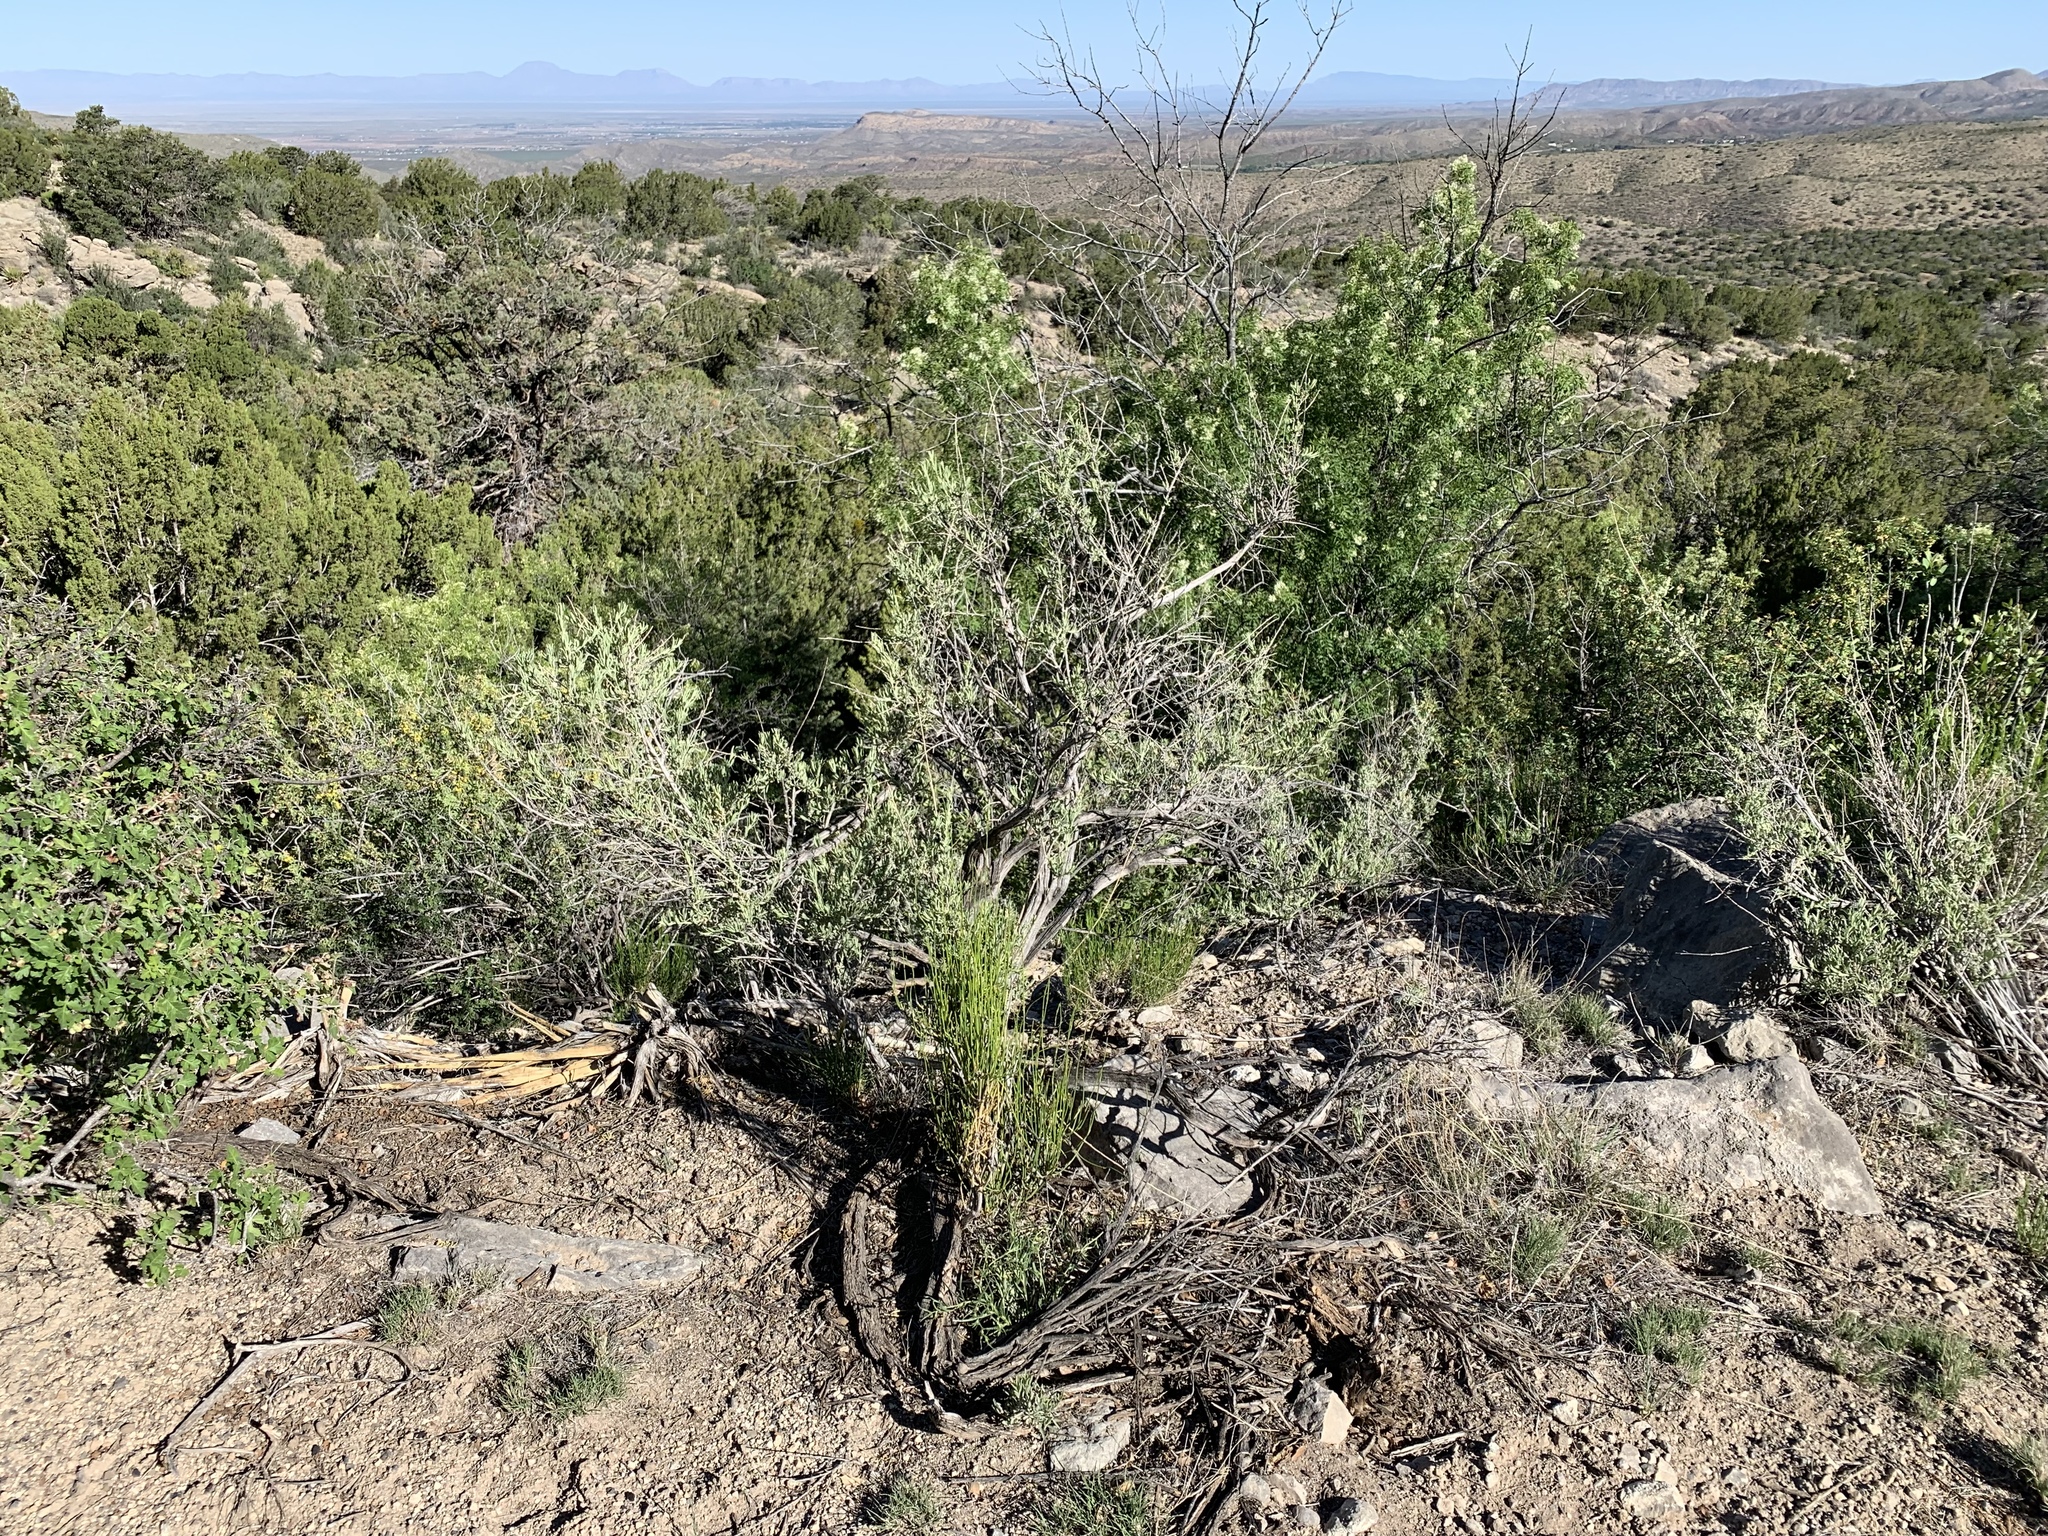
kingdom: Plantae
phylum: Tracheophyta
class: Magnoliopsida
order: Caryophyllales
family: Amaranthaceae
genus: Atriplex
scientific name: Atriplex canescens
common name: Four-wing saltbush
